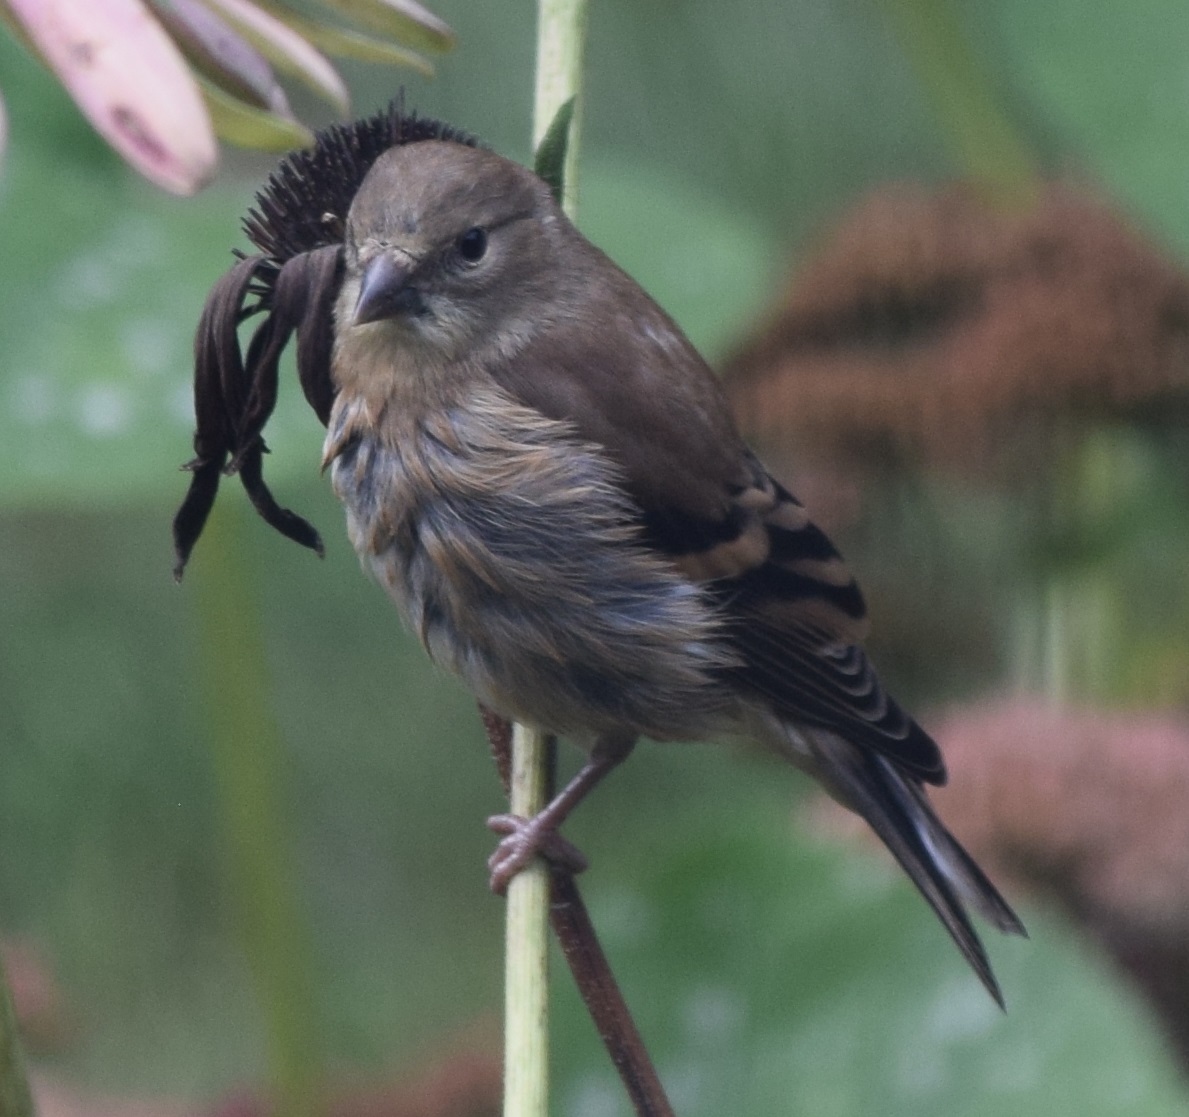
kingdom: Animalia
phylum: Chordata
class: Aves
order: Passeriformes
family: Fringillidae
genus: Spinus
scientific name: Spinus tristis
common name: American goldfinch
